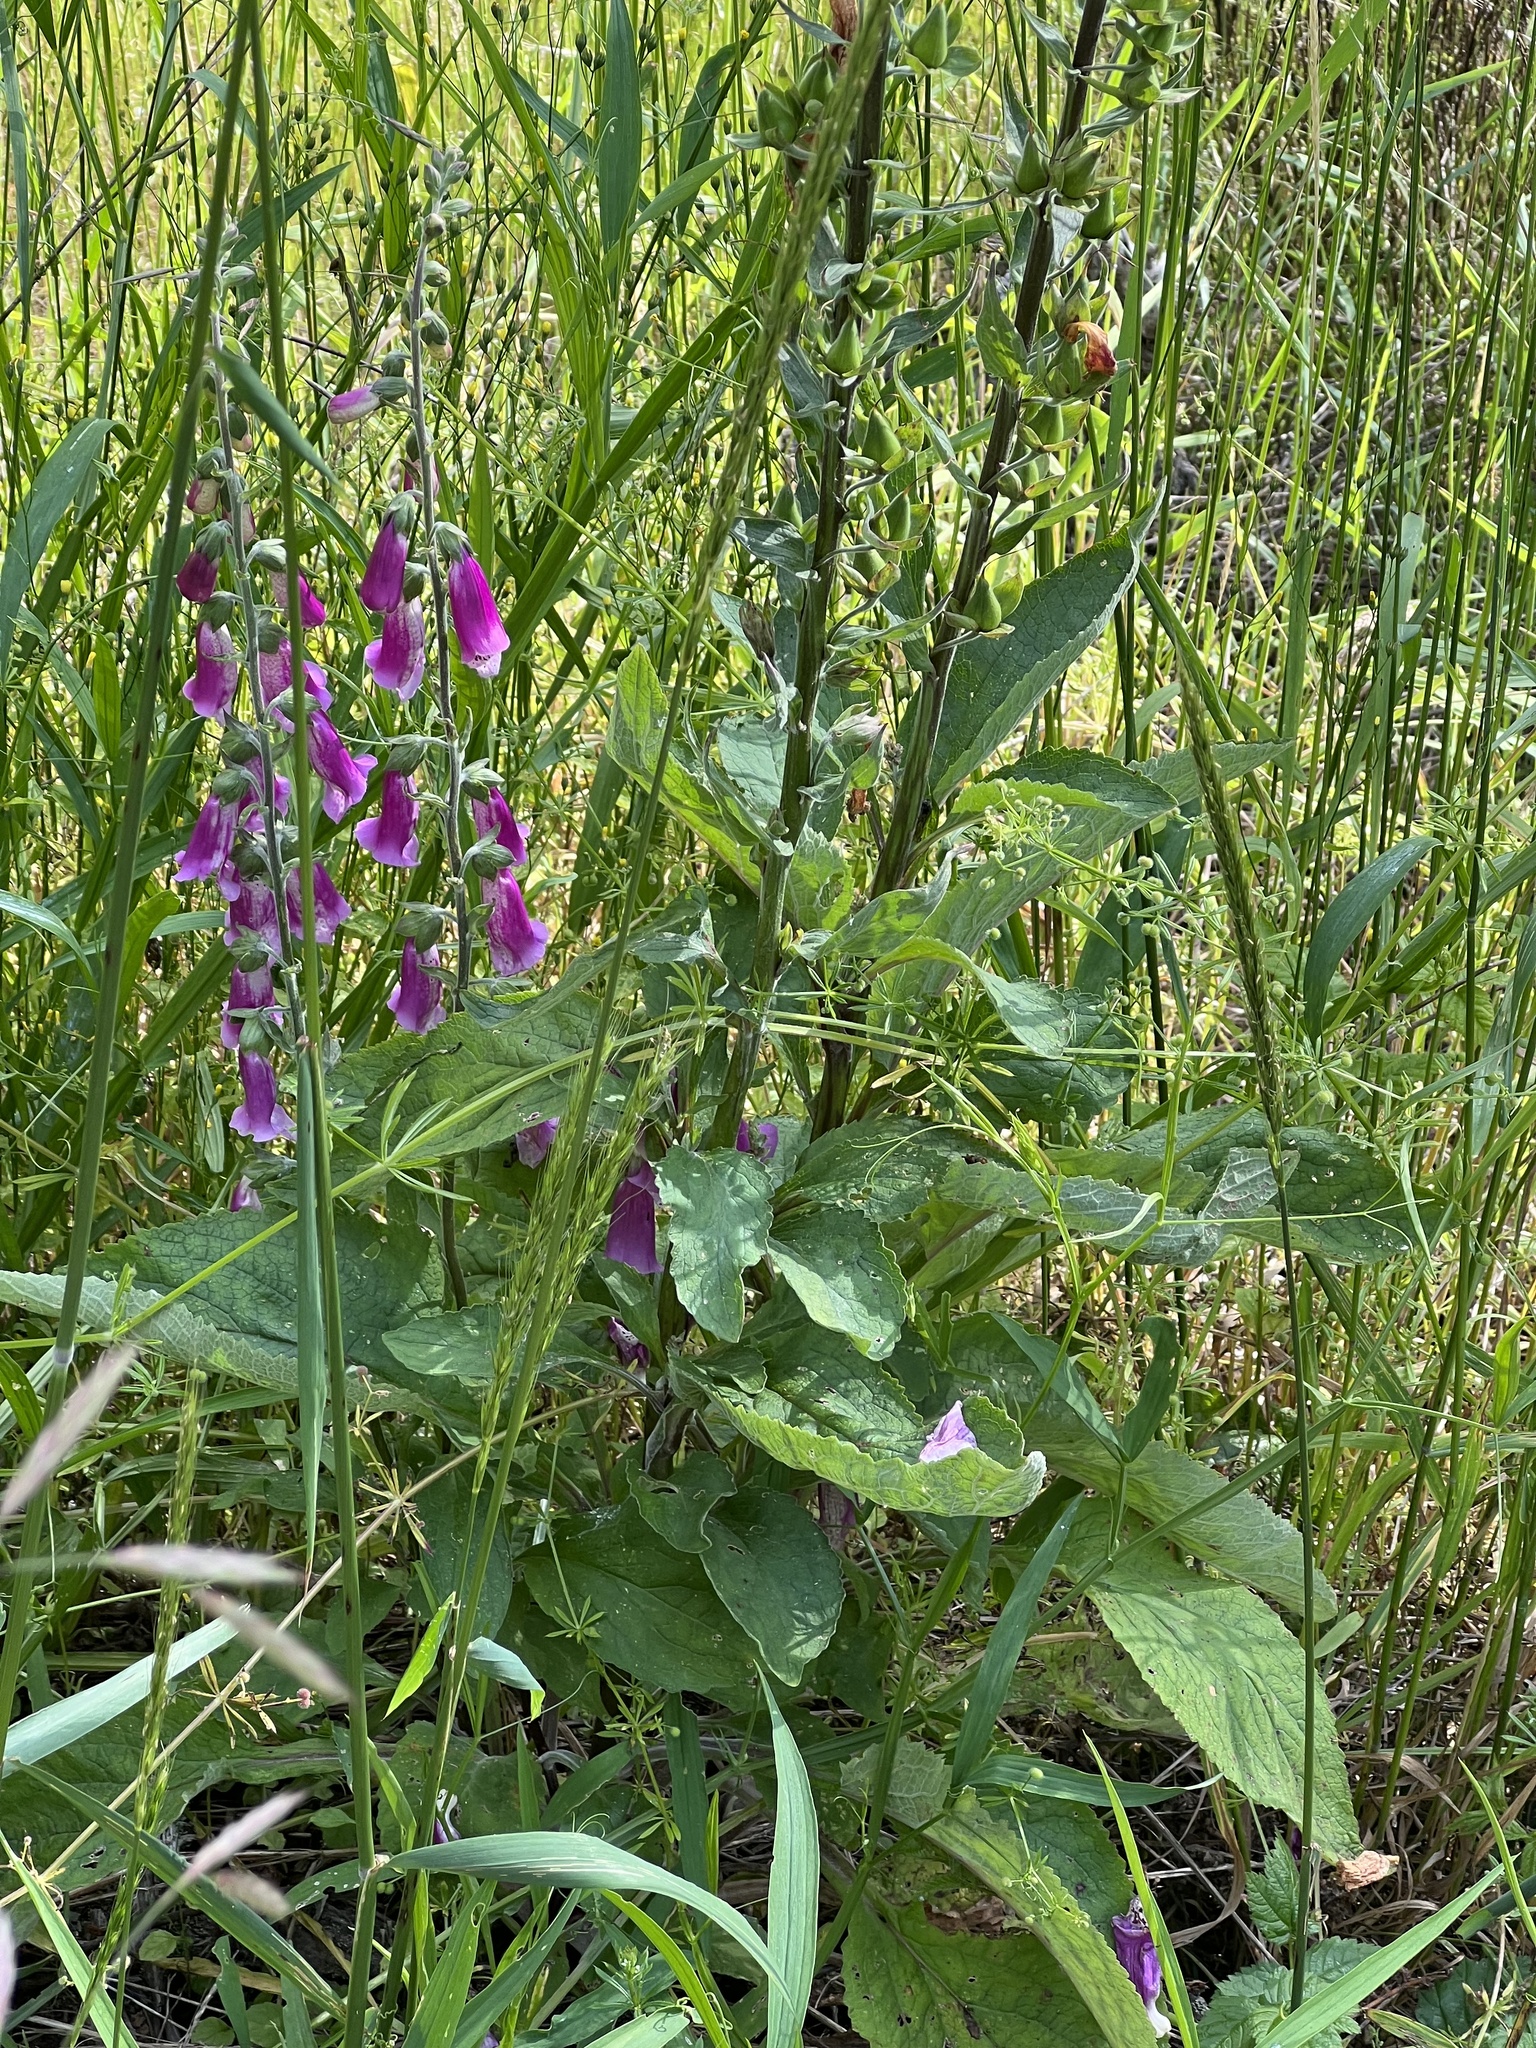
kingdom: Plantae
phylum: Tracheophyta
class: Magnoliopsida
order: Lamiales
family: Plantaginaceae
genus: Digitalis
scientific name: Digitalis purpurea
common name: Foxglove
